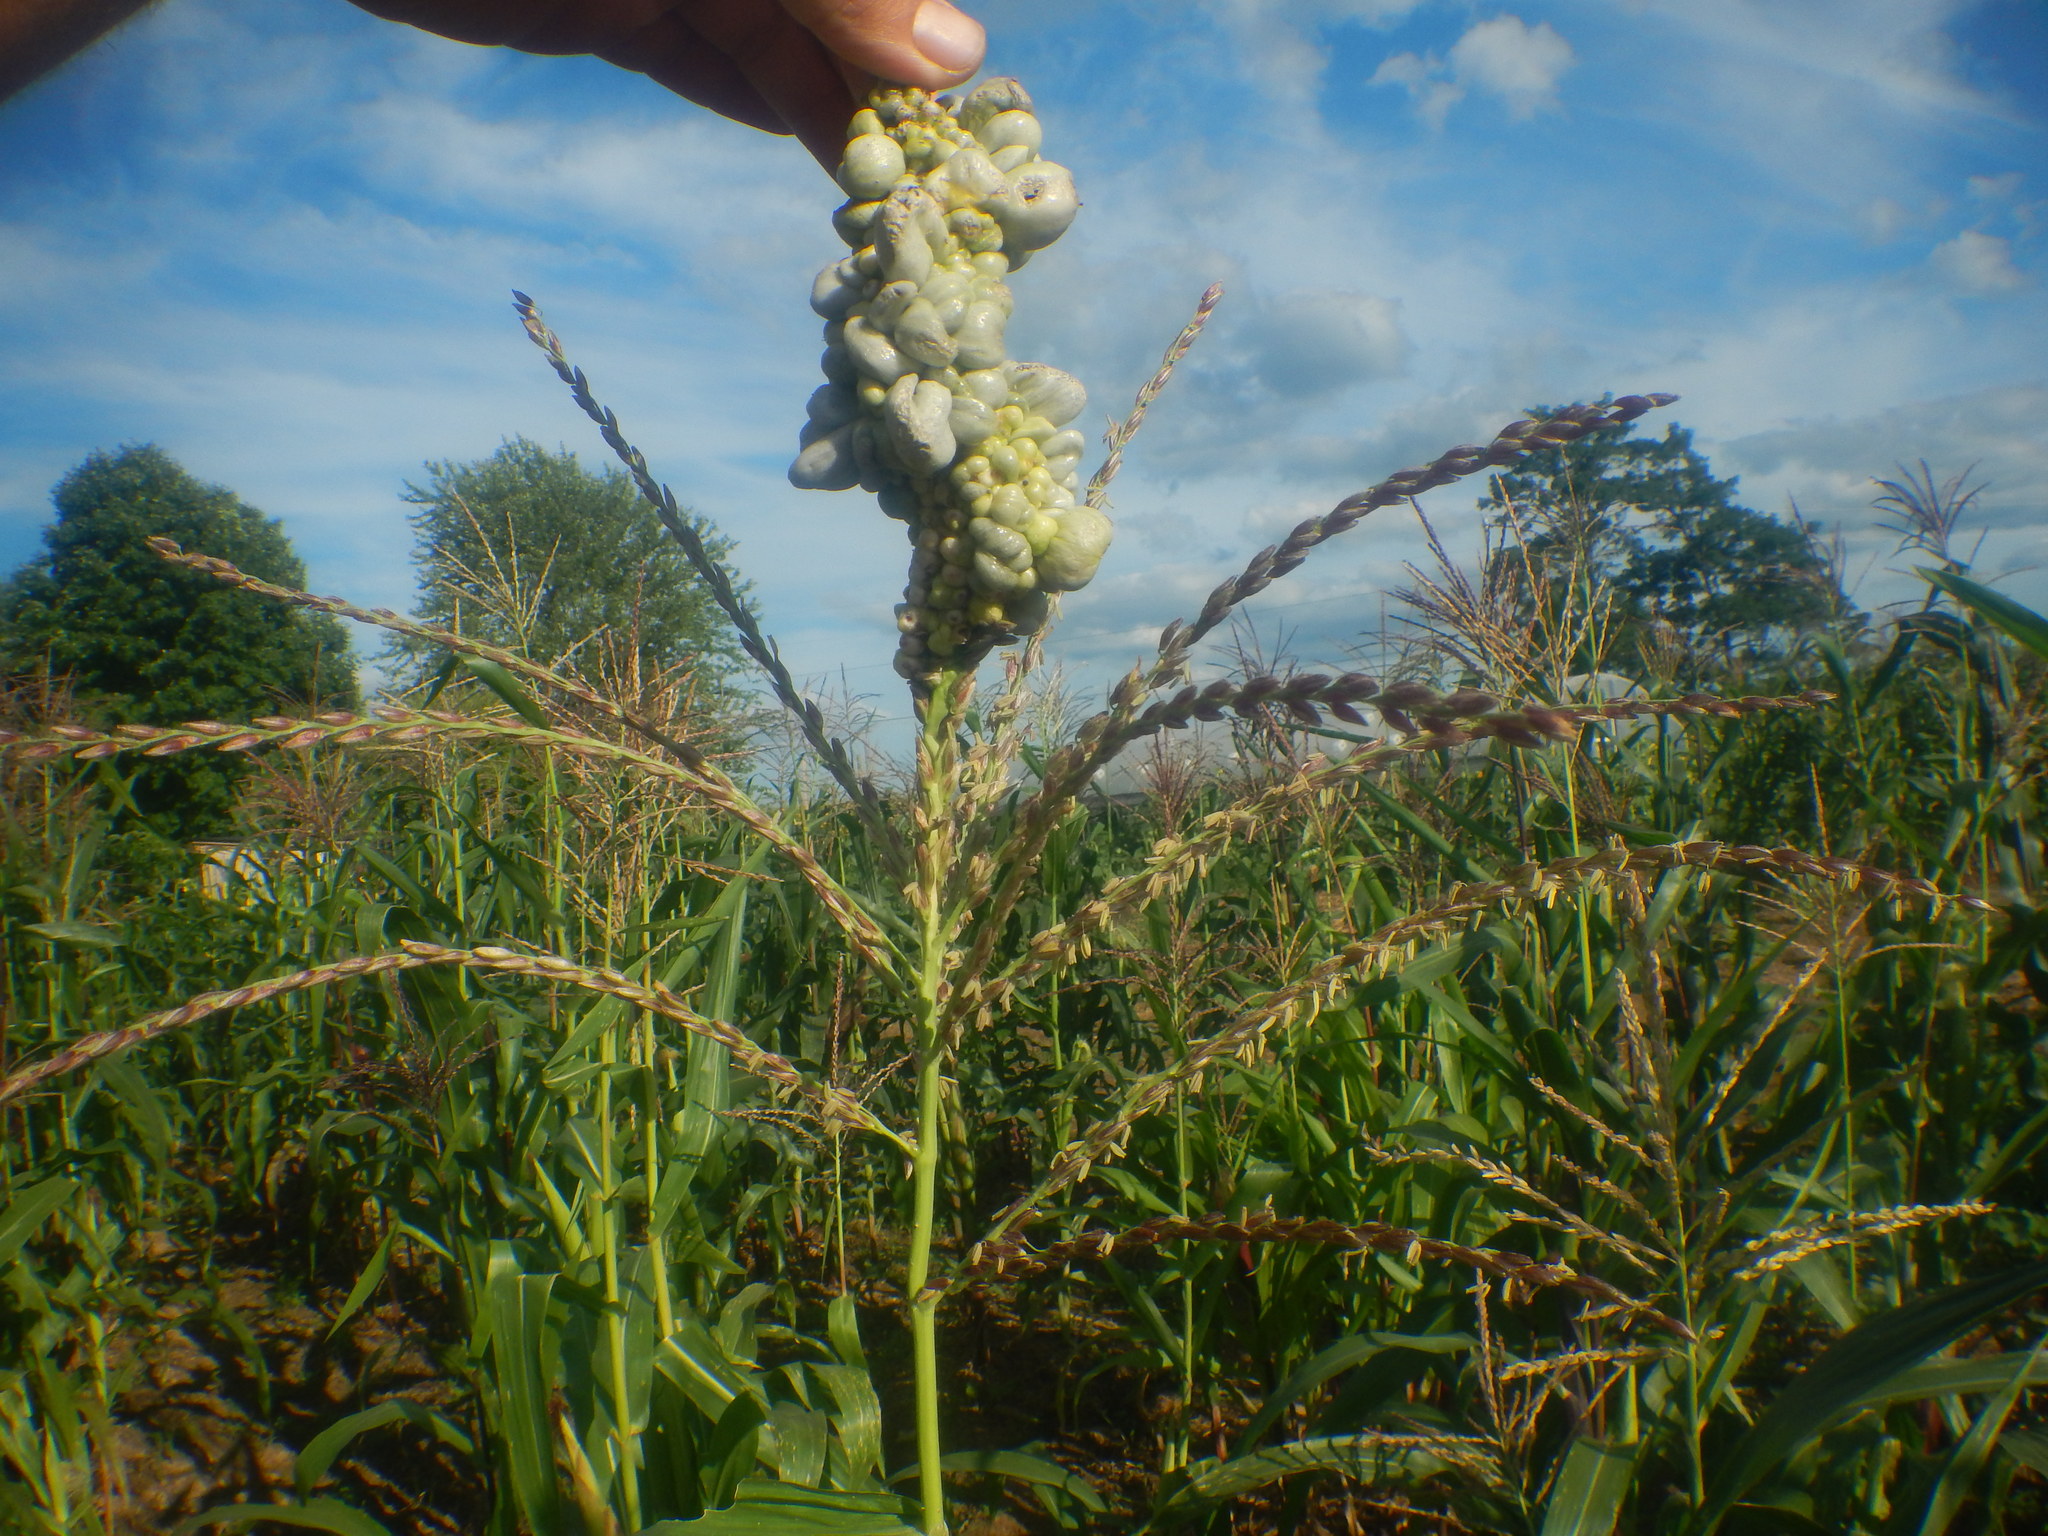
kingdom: Fungi
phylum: Basidiomycota
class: Ustilaginomycetes
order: Ustilaginales
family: Ustilaginaceae
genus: Mycosarcoma
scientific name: Mycosarcoma maydis
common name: Corn smut
